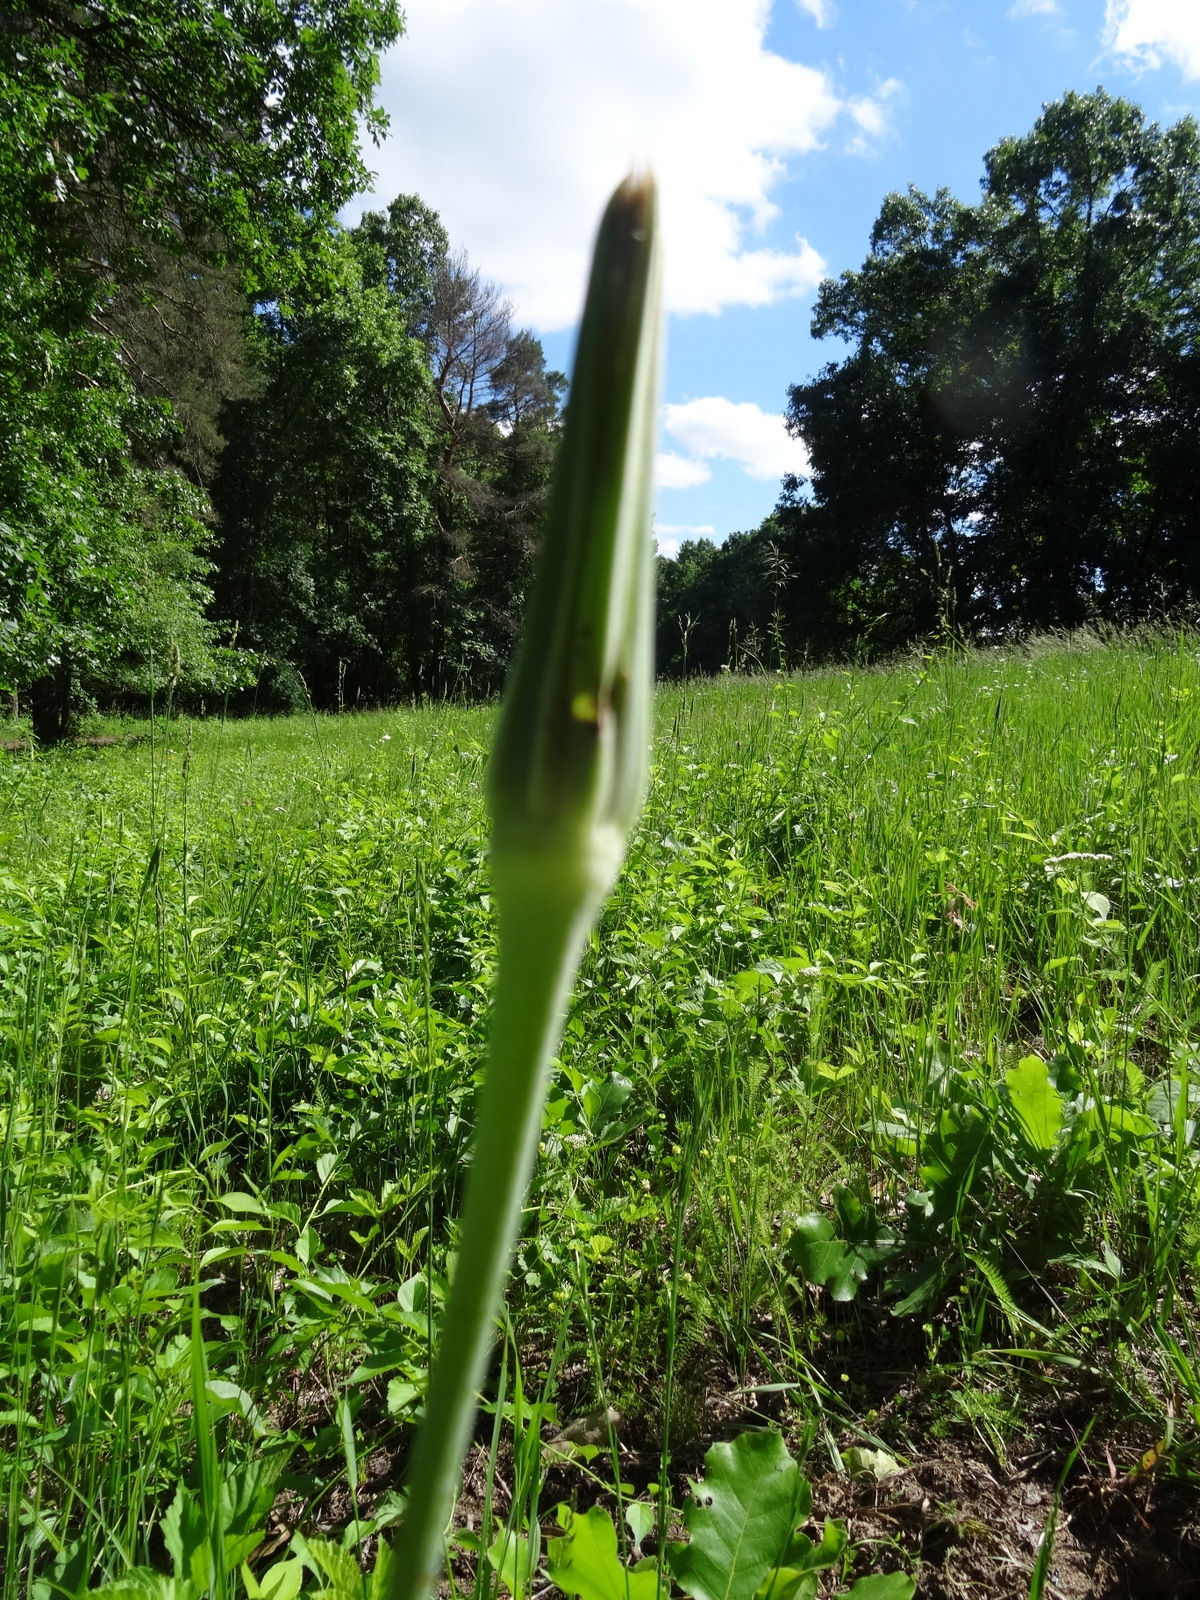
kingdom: Plantae
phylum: Tracheophyta
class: Magnoliopsida
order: Asterales
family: Asteraceae
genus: Tragopogon
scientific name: Tragopogon dubius
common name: Yellow salsify
